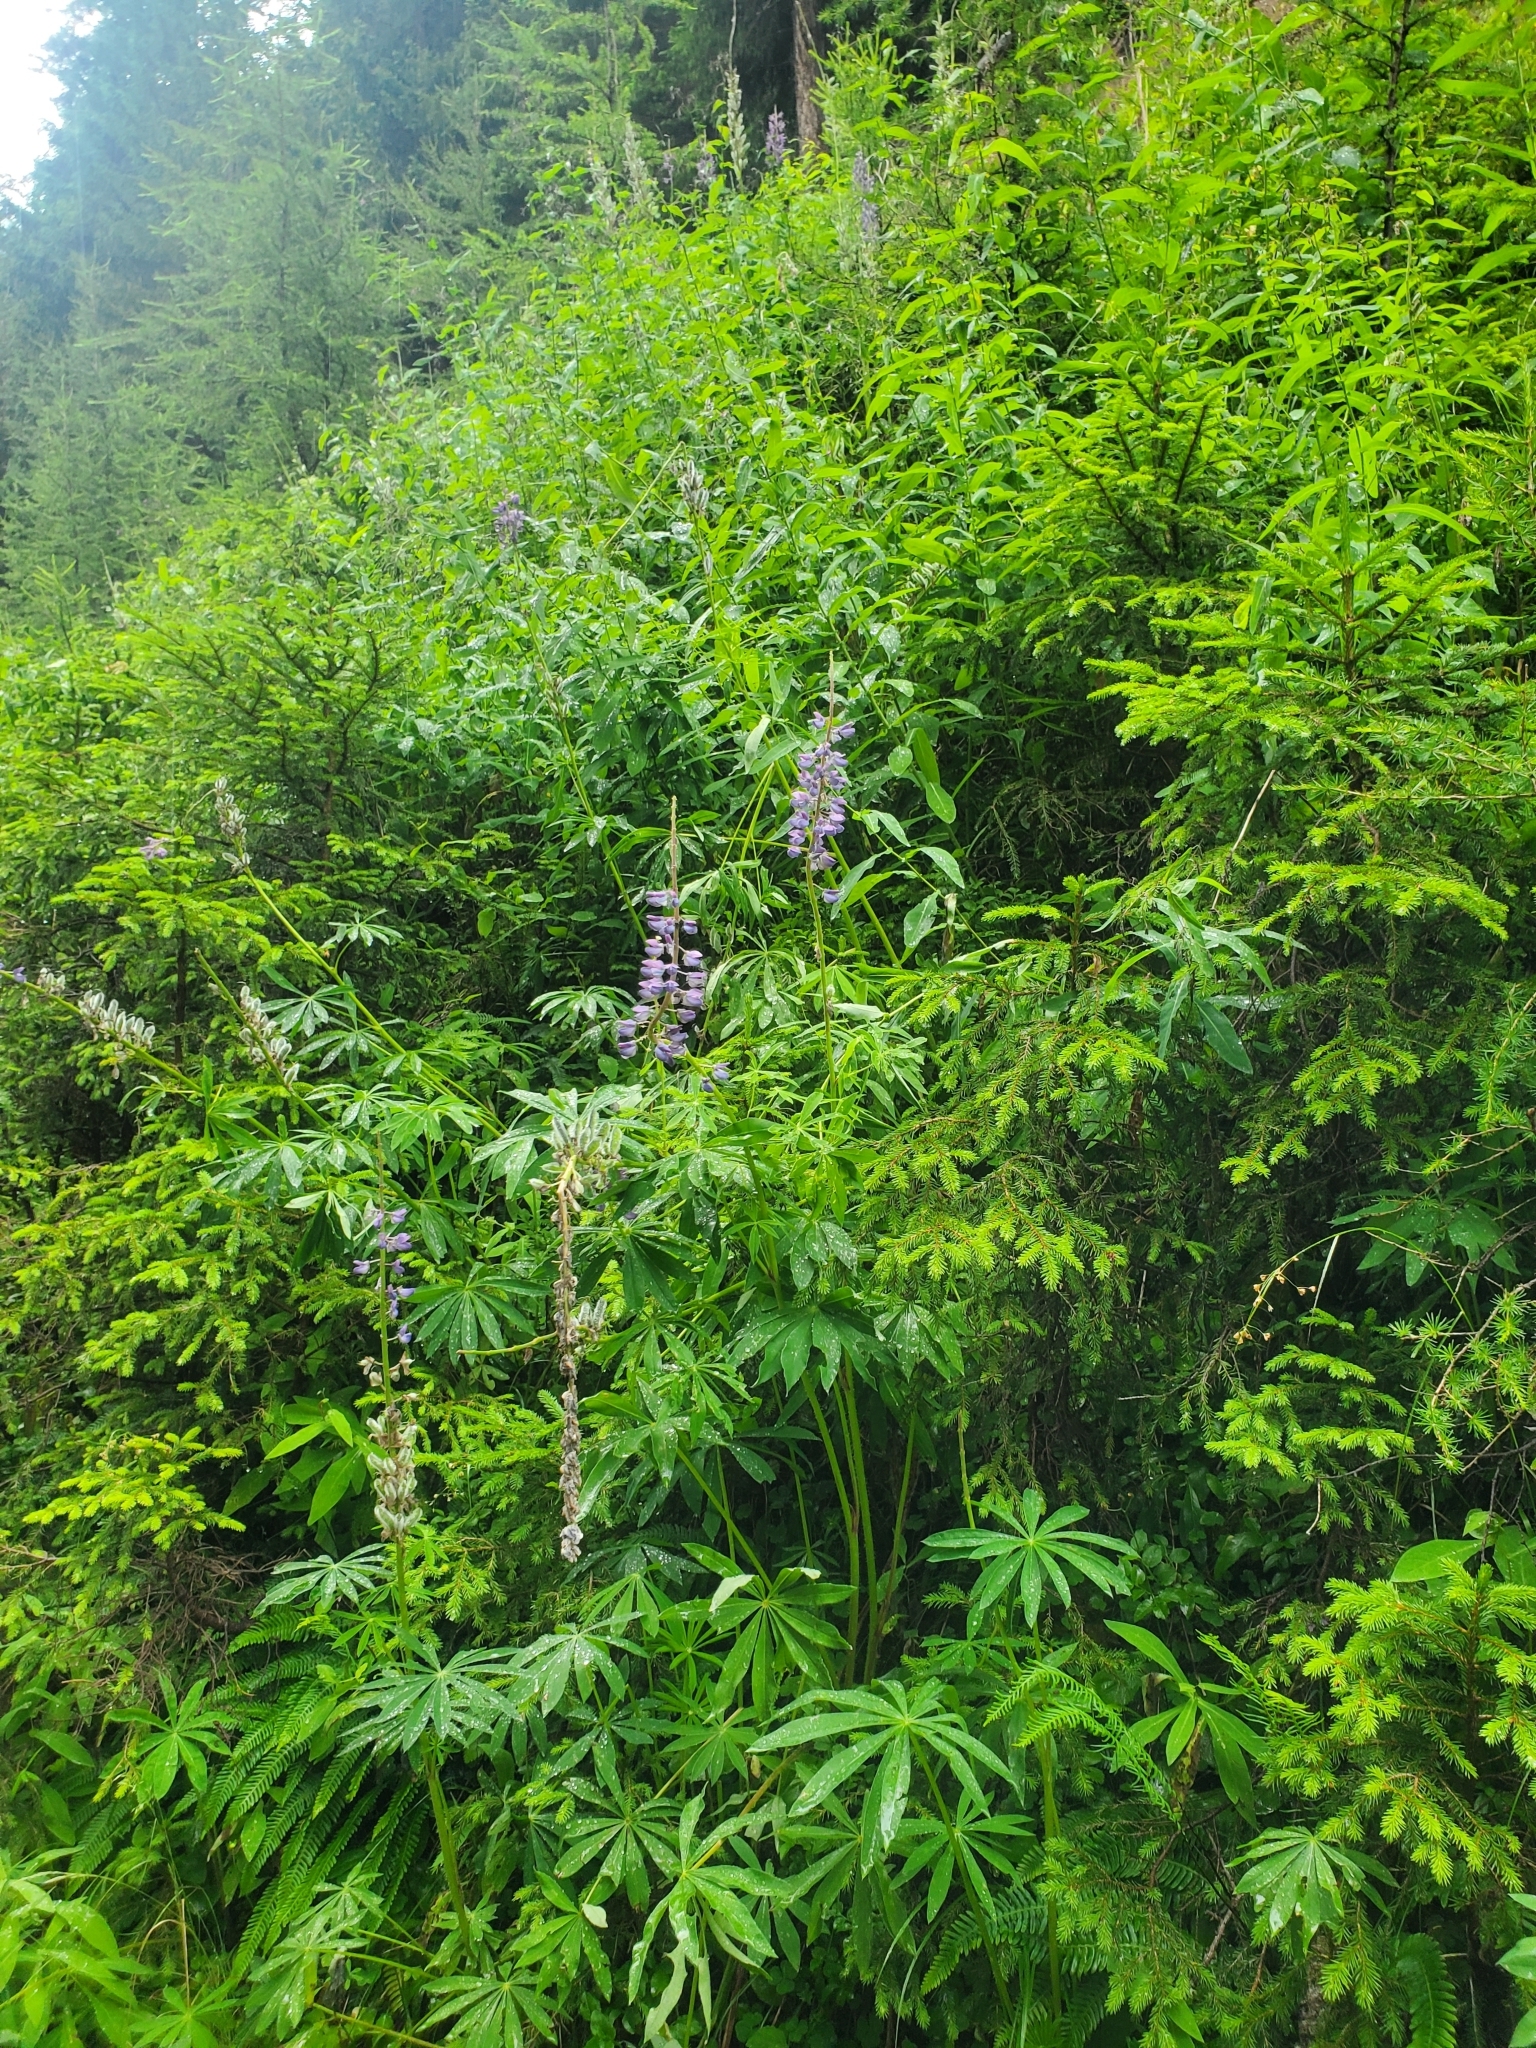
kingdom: Plantae
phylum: Tracheophyta
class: Magnoliopsida
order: Fabales
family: Fabaceae
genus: Lupinus
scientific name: Lupinus polyphyllus
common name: Garden lupin
